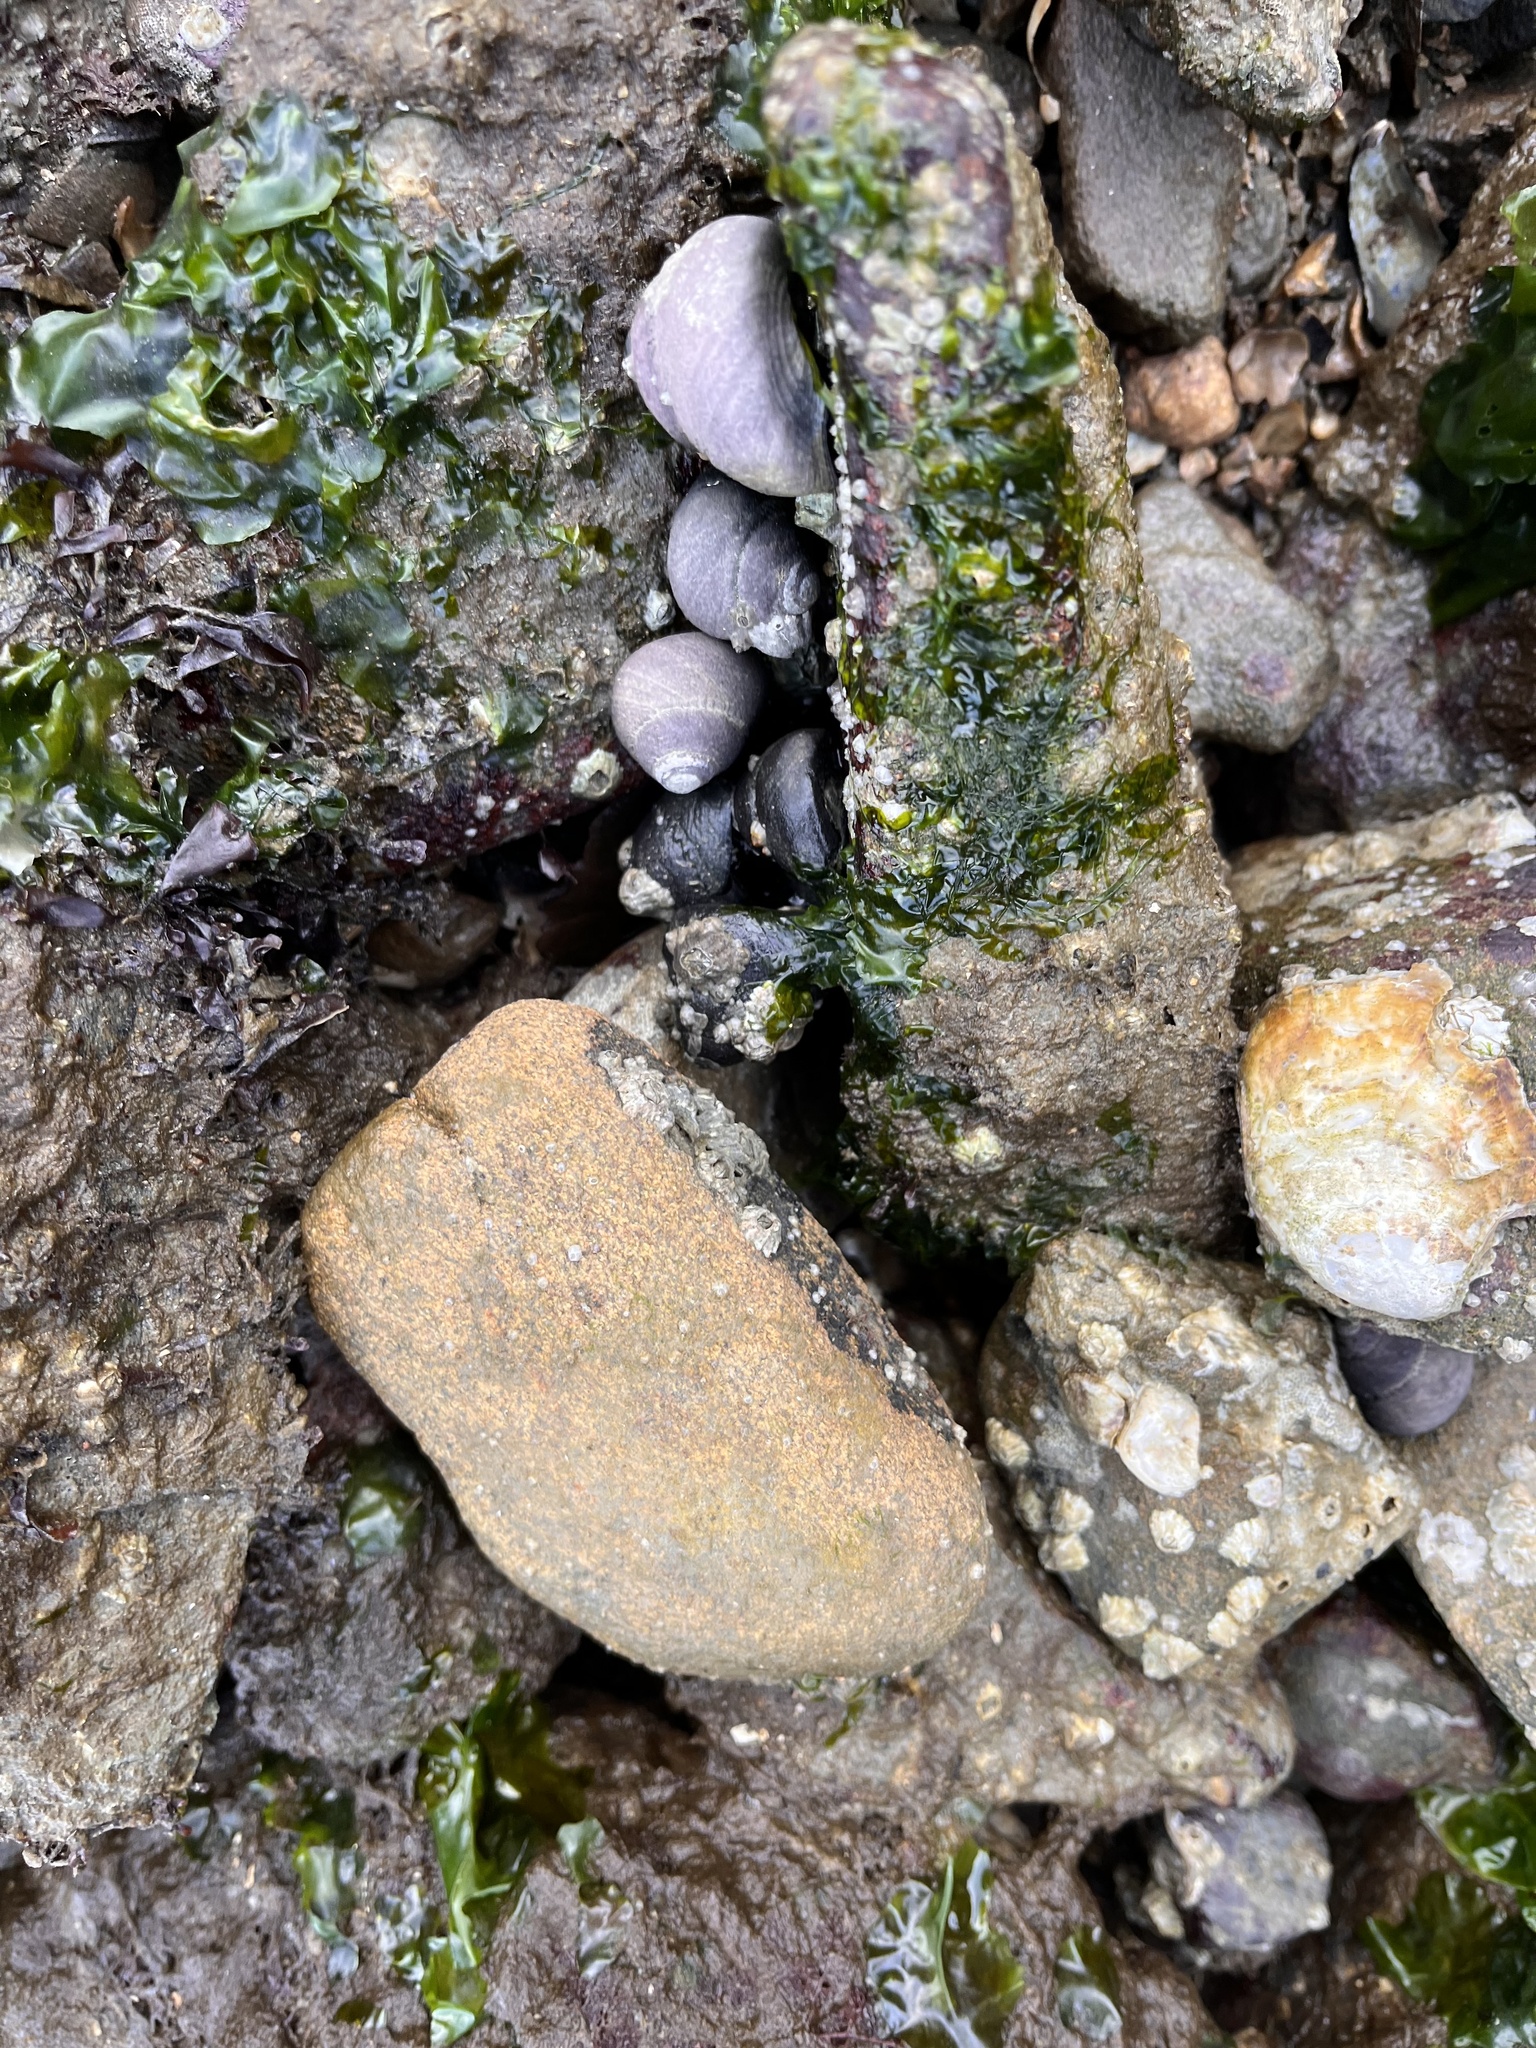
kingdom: Animalia
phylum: Mollusca
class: Gastropoda
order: Trochida
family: Tegulidae
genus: Tegula
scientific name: Tegula funebralis
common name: Black tegula
